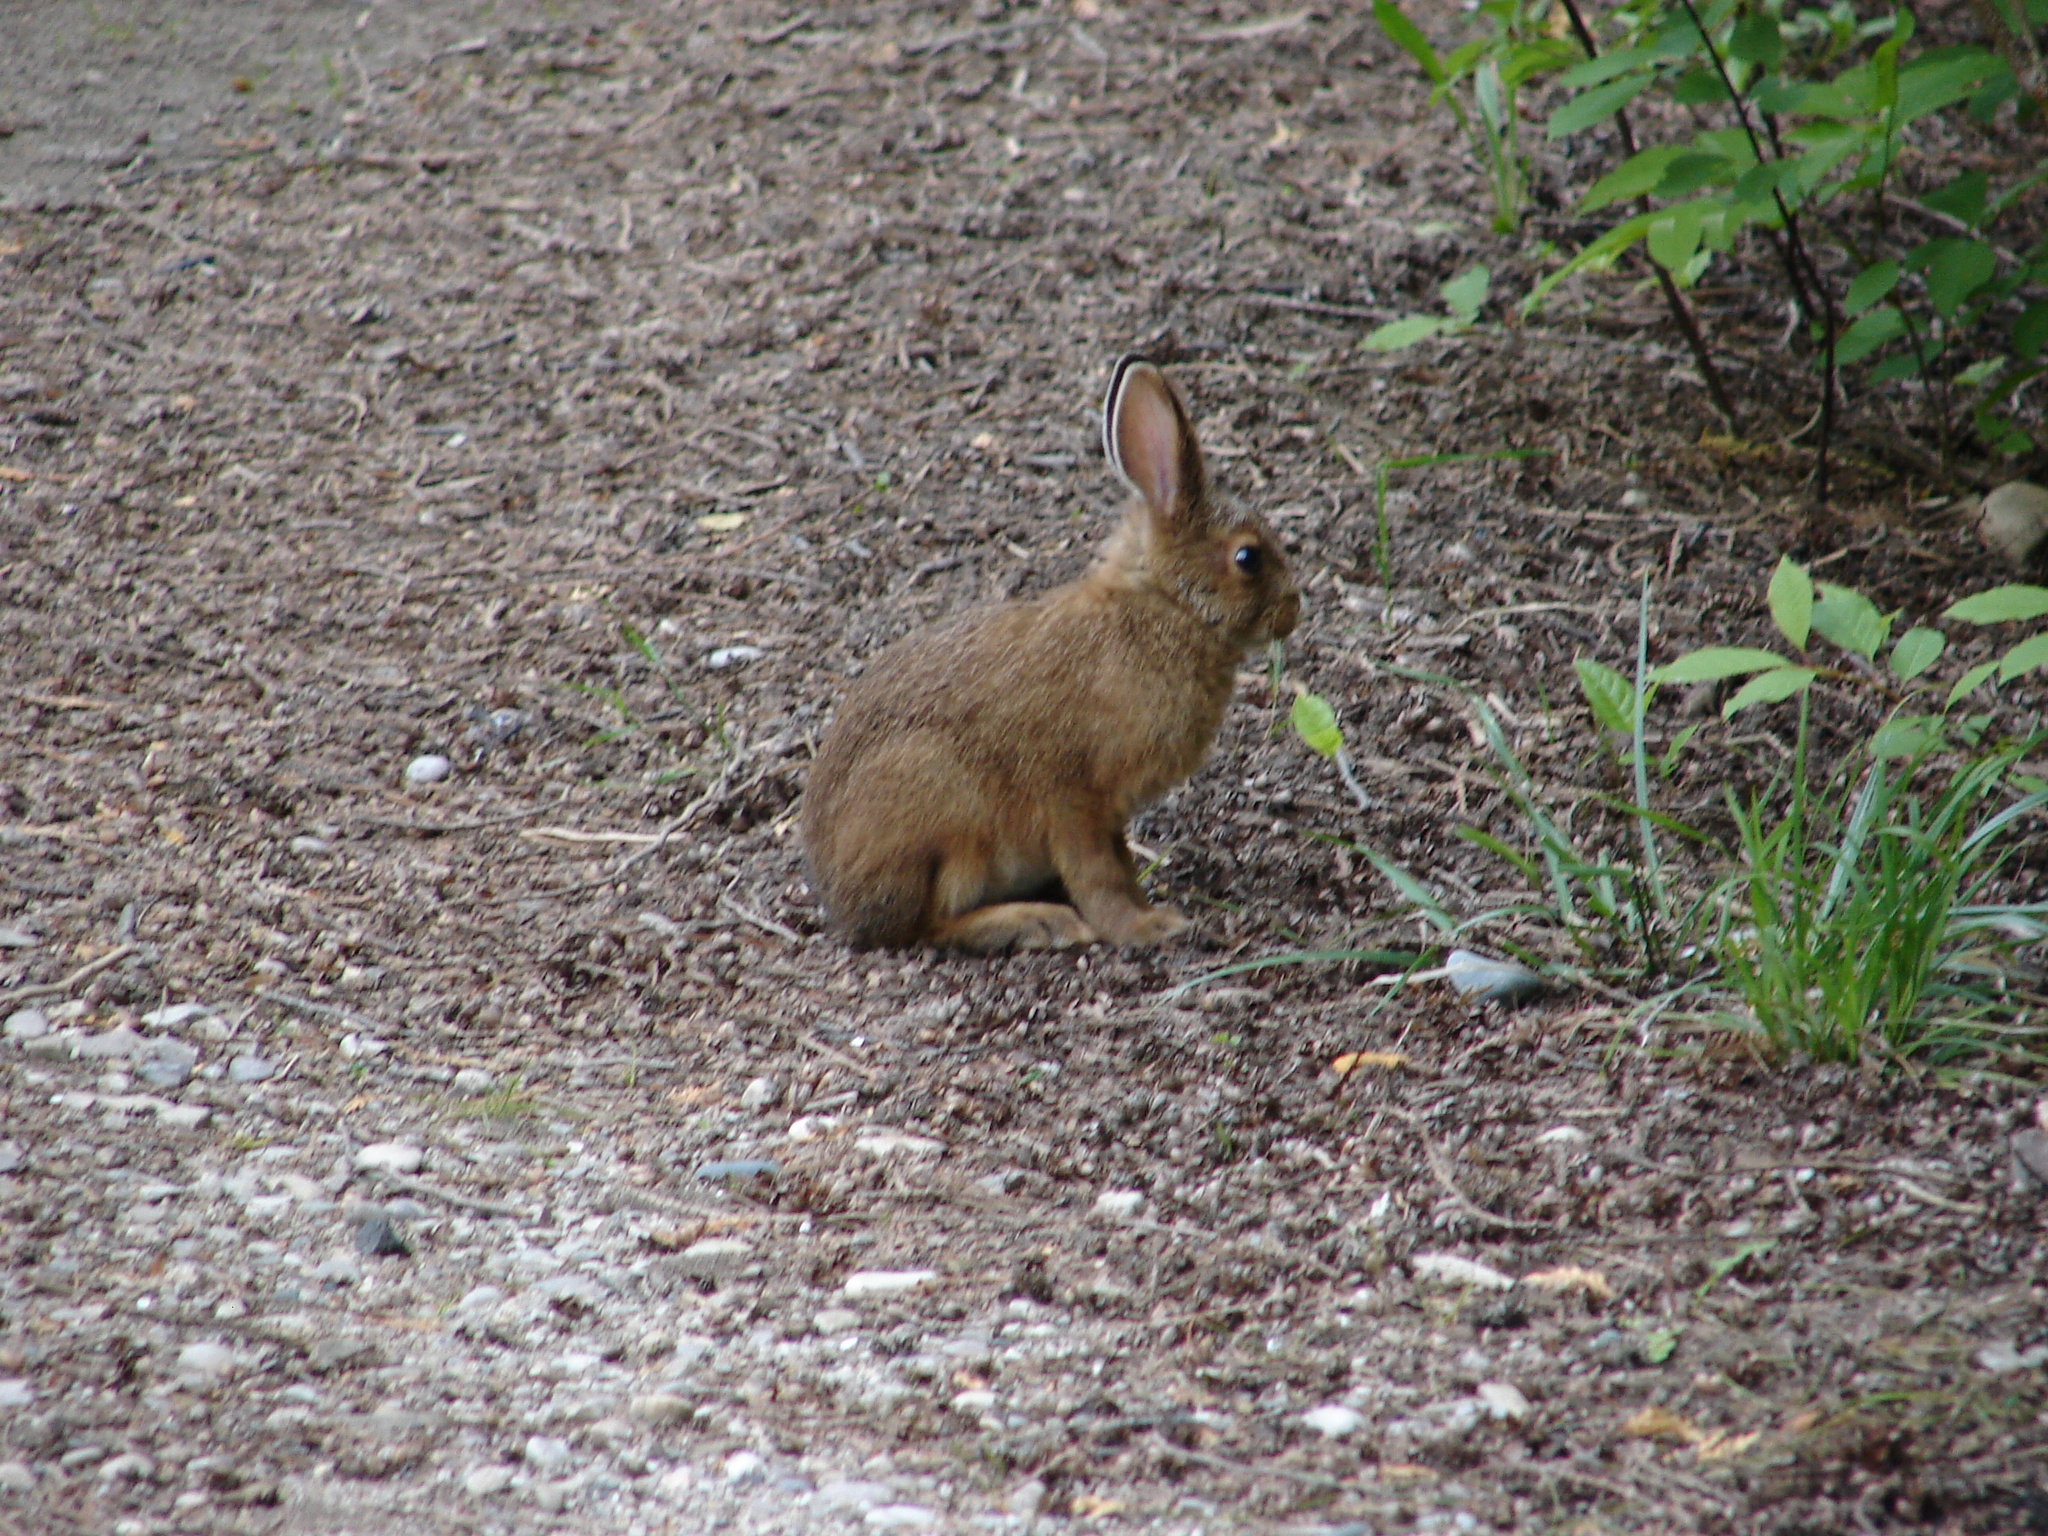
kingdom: Animalia
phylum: Chordata
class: Mammalia
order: Lagomorpha
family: Leporidae
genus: Lepus
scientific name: Lepus americanus
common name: Snowshoe hare
